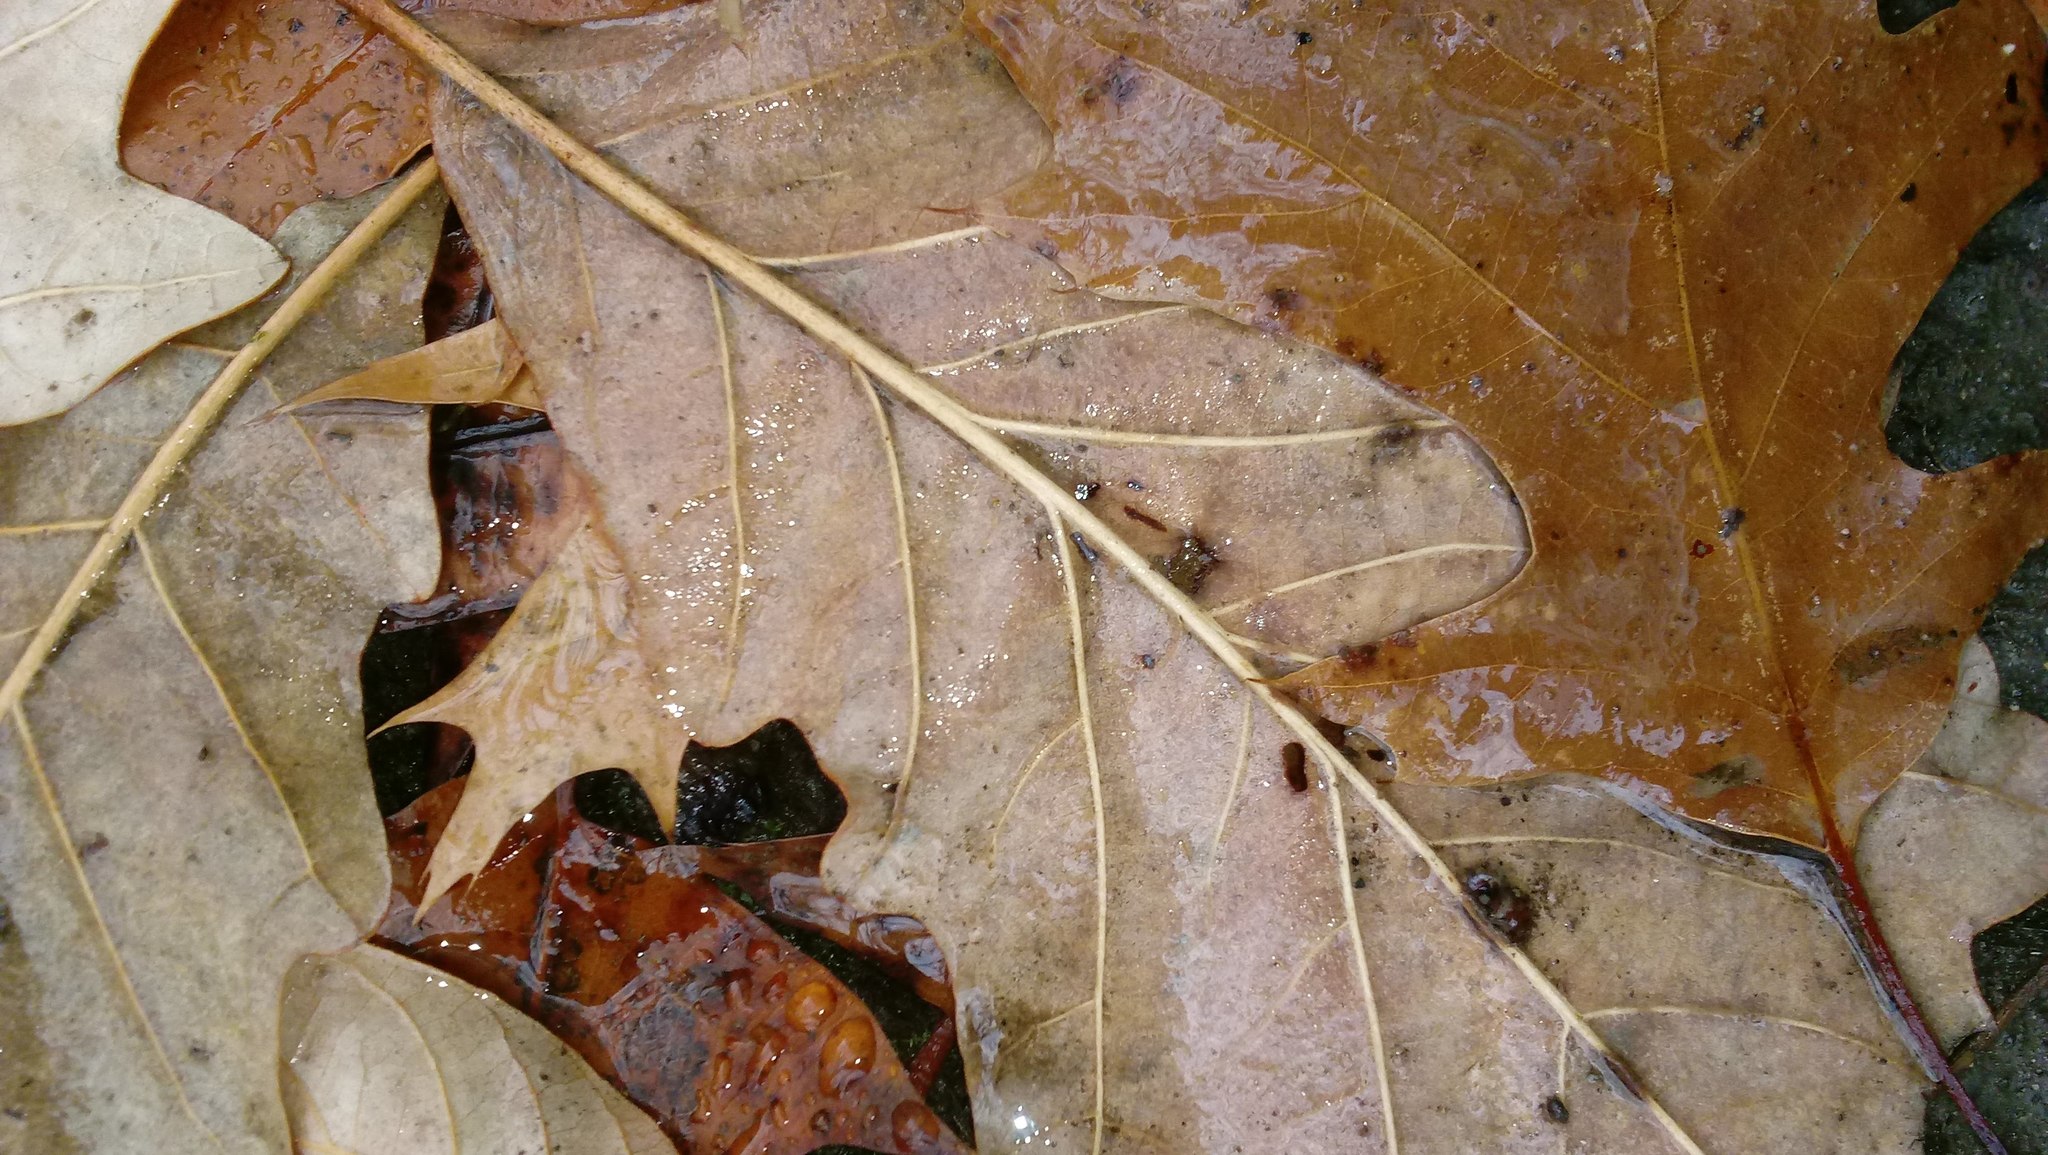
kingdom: Animalia
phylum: Arthropoda
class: Insecta
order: Hymenoptera
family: Cynipidae
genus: Andricus
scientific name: Andricus Druon ignotum
